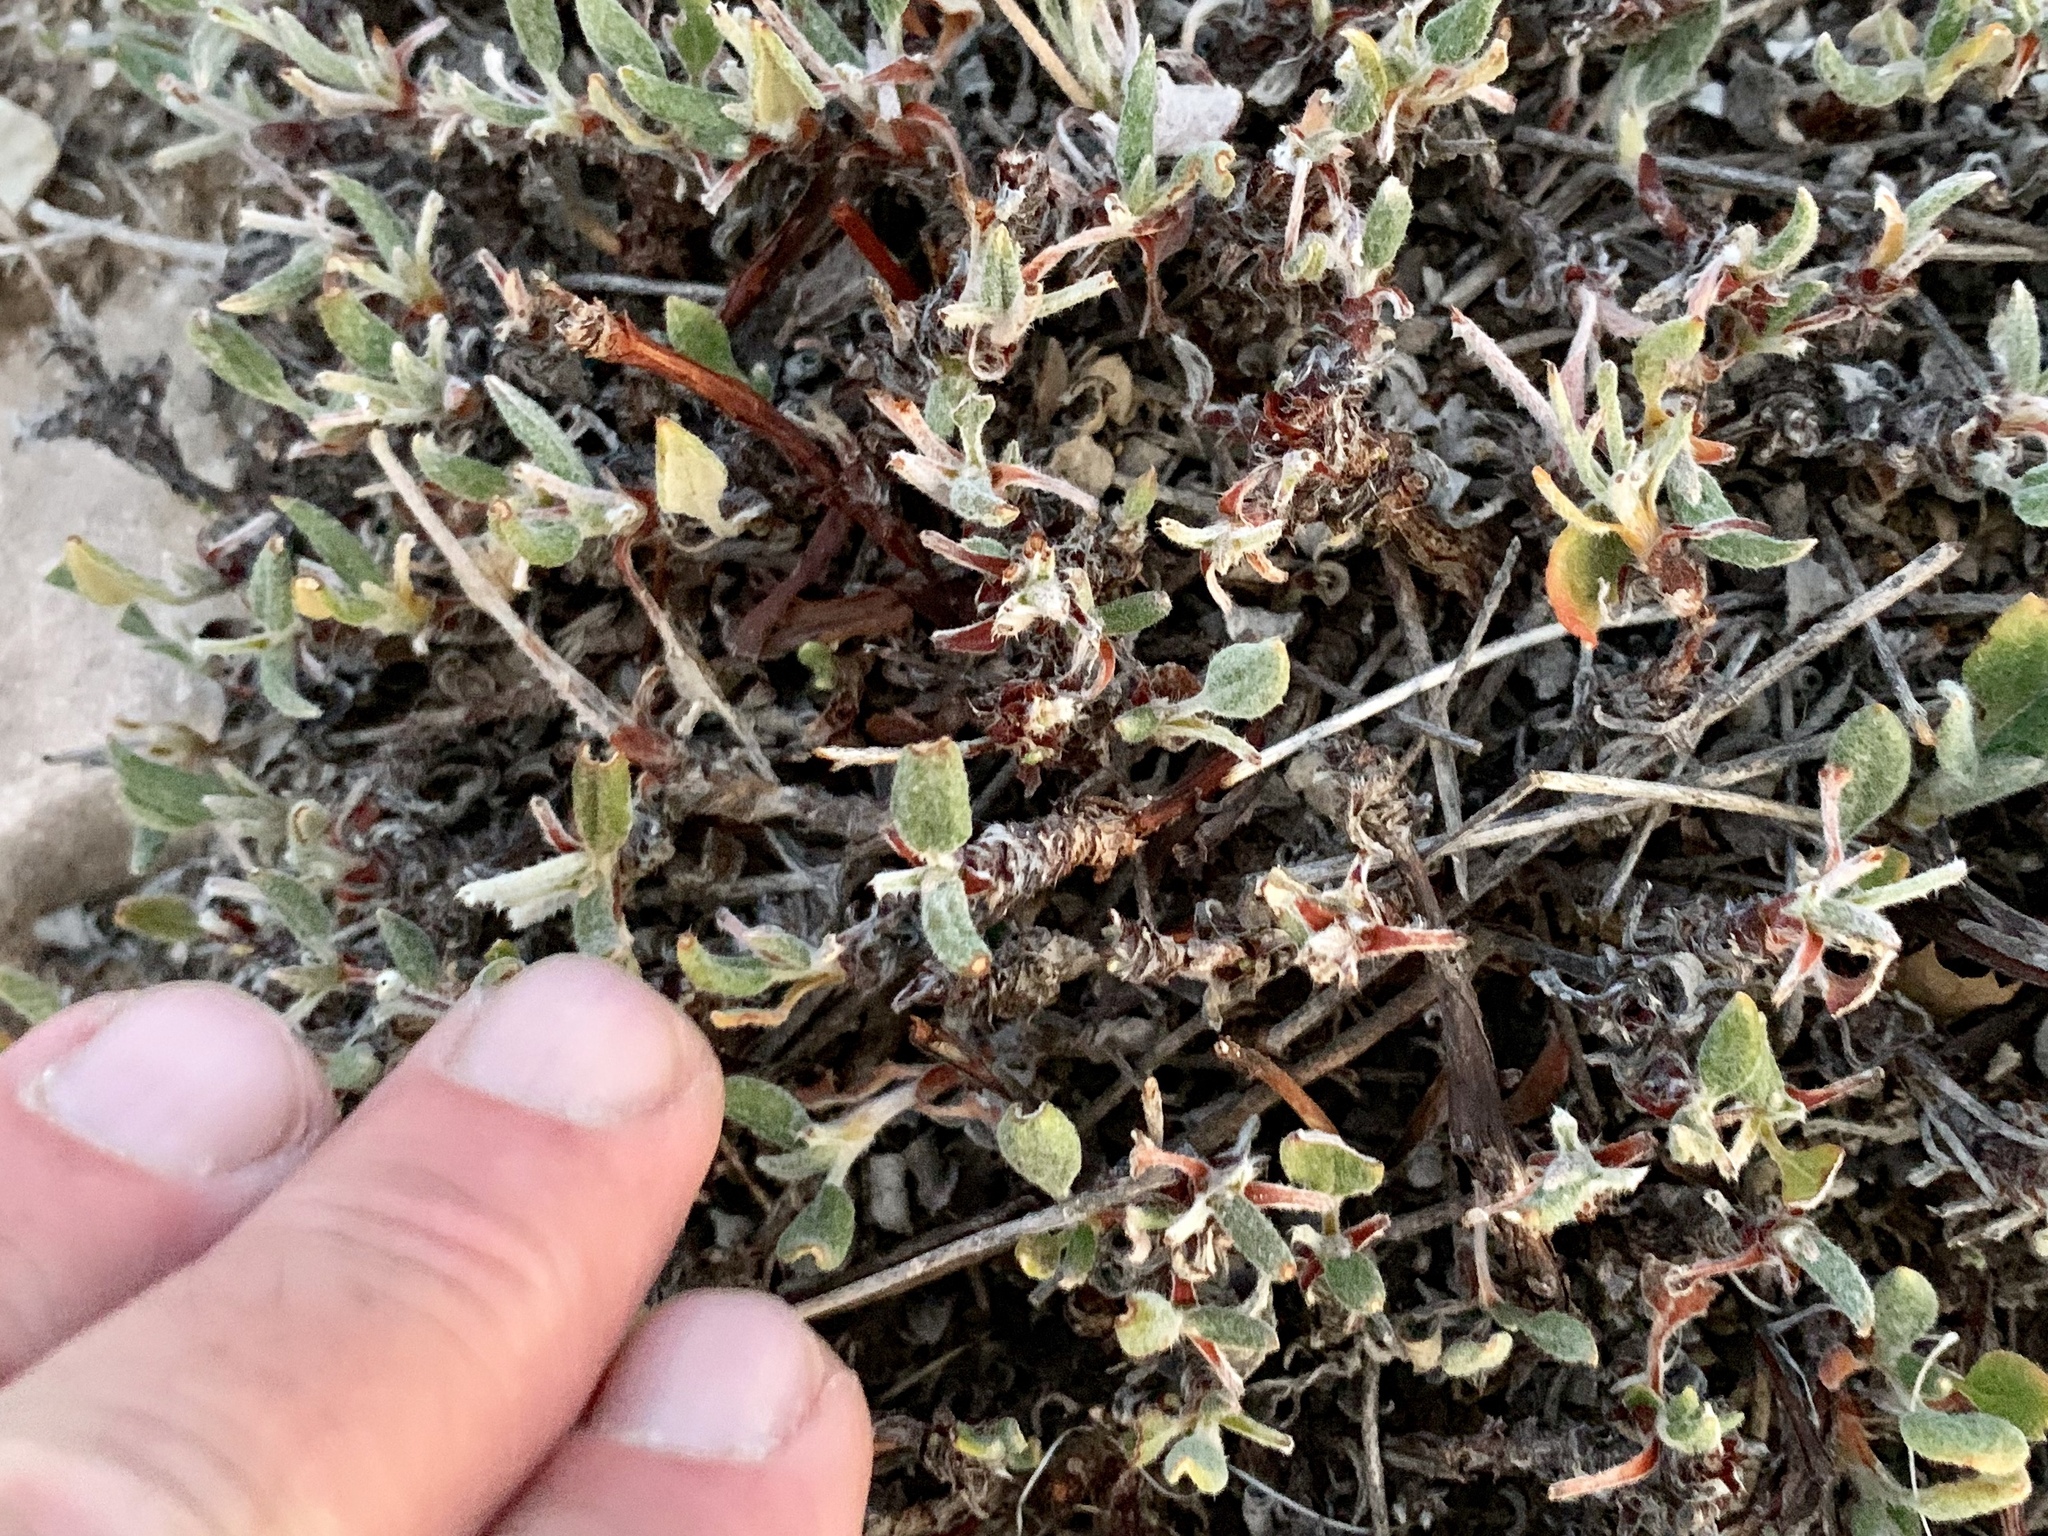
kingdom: Plantae
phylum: Tracheophyta
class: Magnoliopsida
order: Caryophyllales
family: Polygonaceae
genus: Eriogonum
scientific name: Eriogonum jamesii
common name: Antelope-sage
